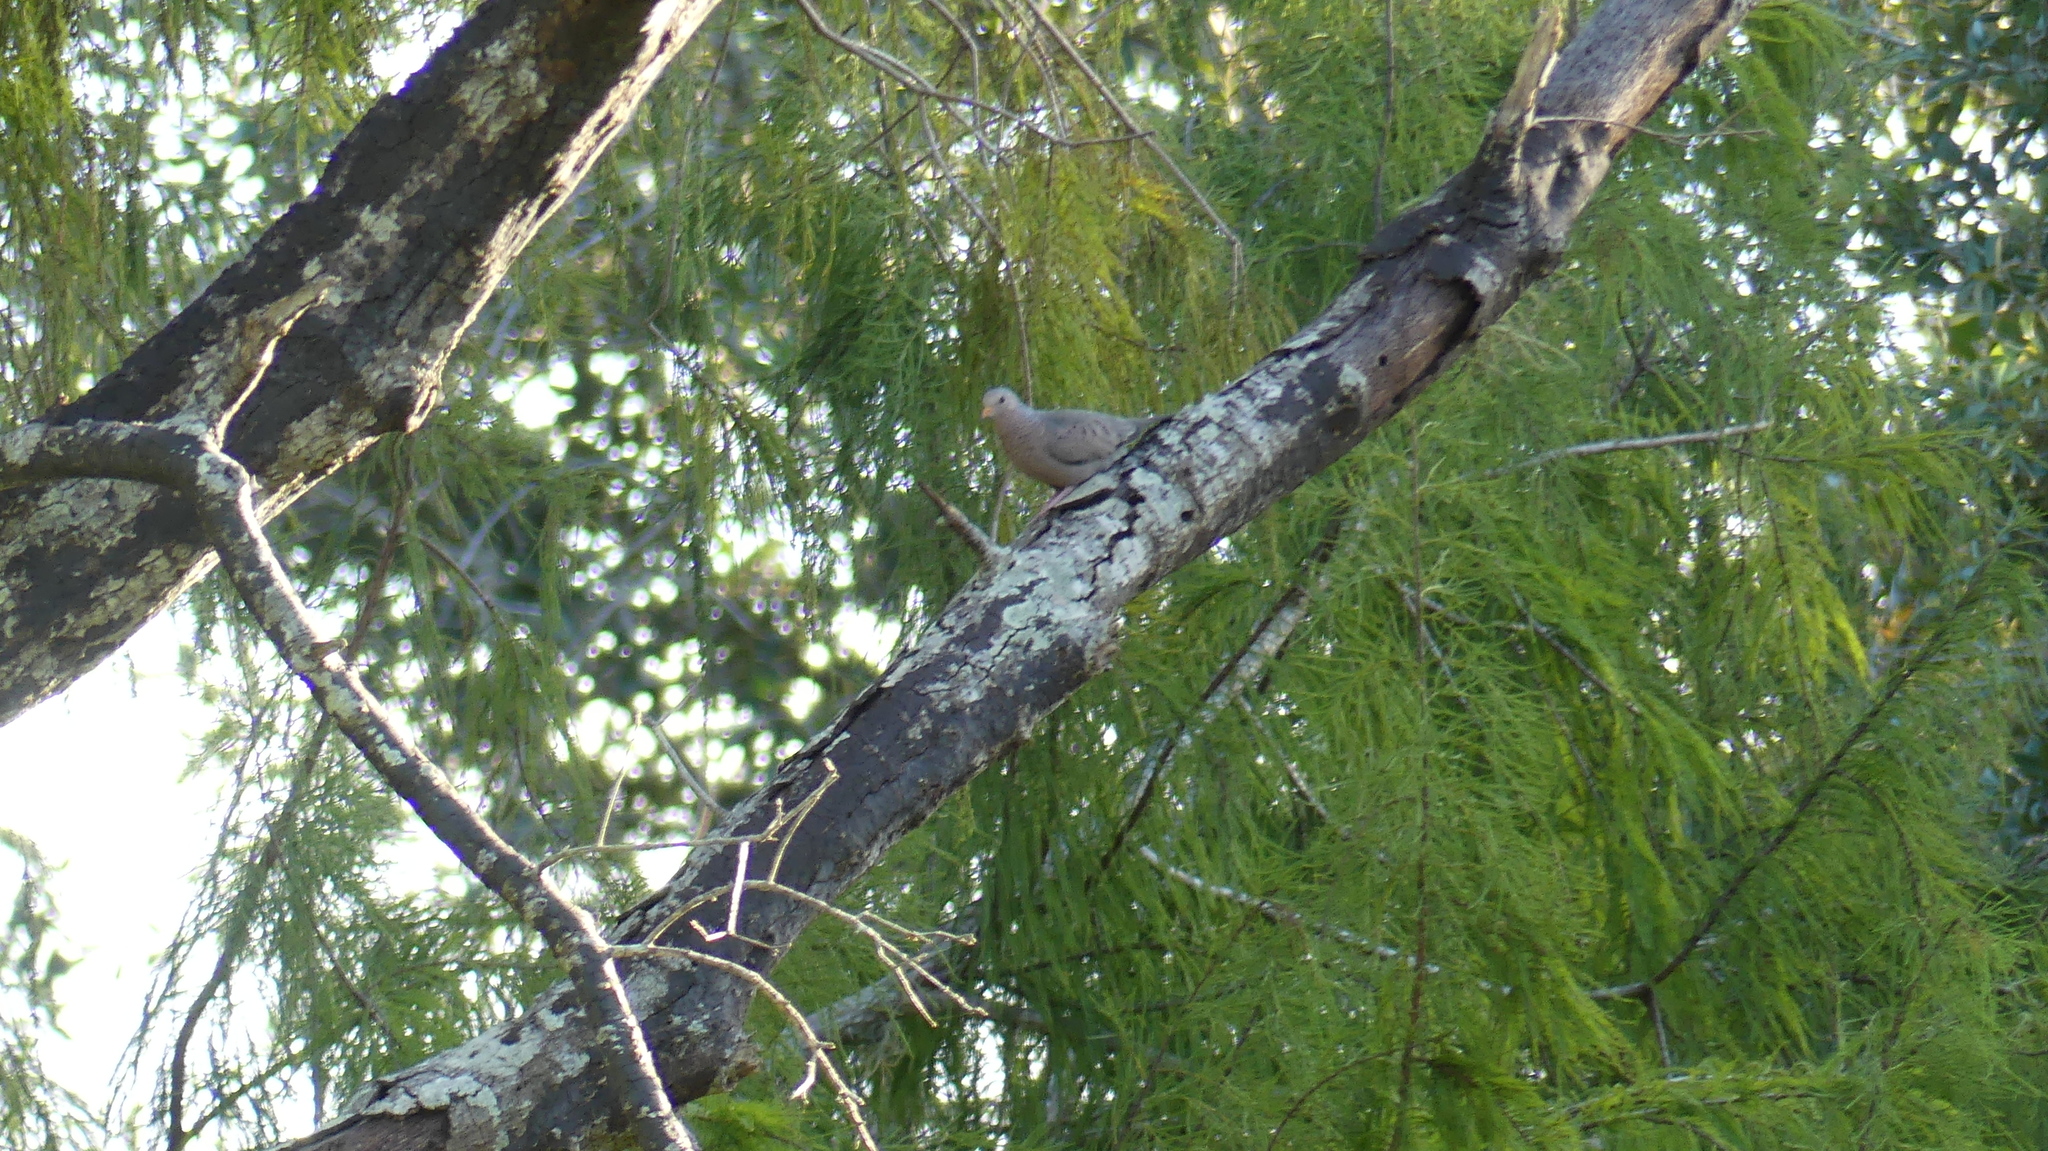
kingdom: Animalia
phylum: Chordata
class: Aves
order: Columbiformes
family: Columbidae
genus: Columbina
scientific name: Columbina passerina
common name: Common ground-dove
